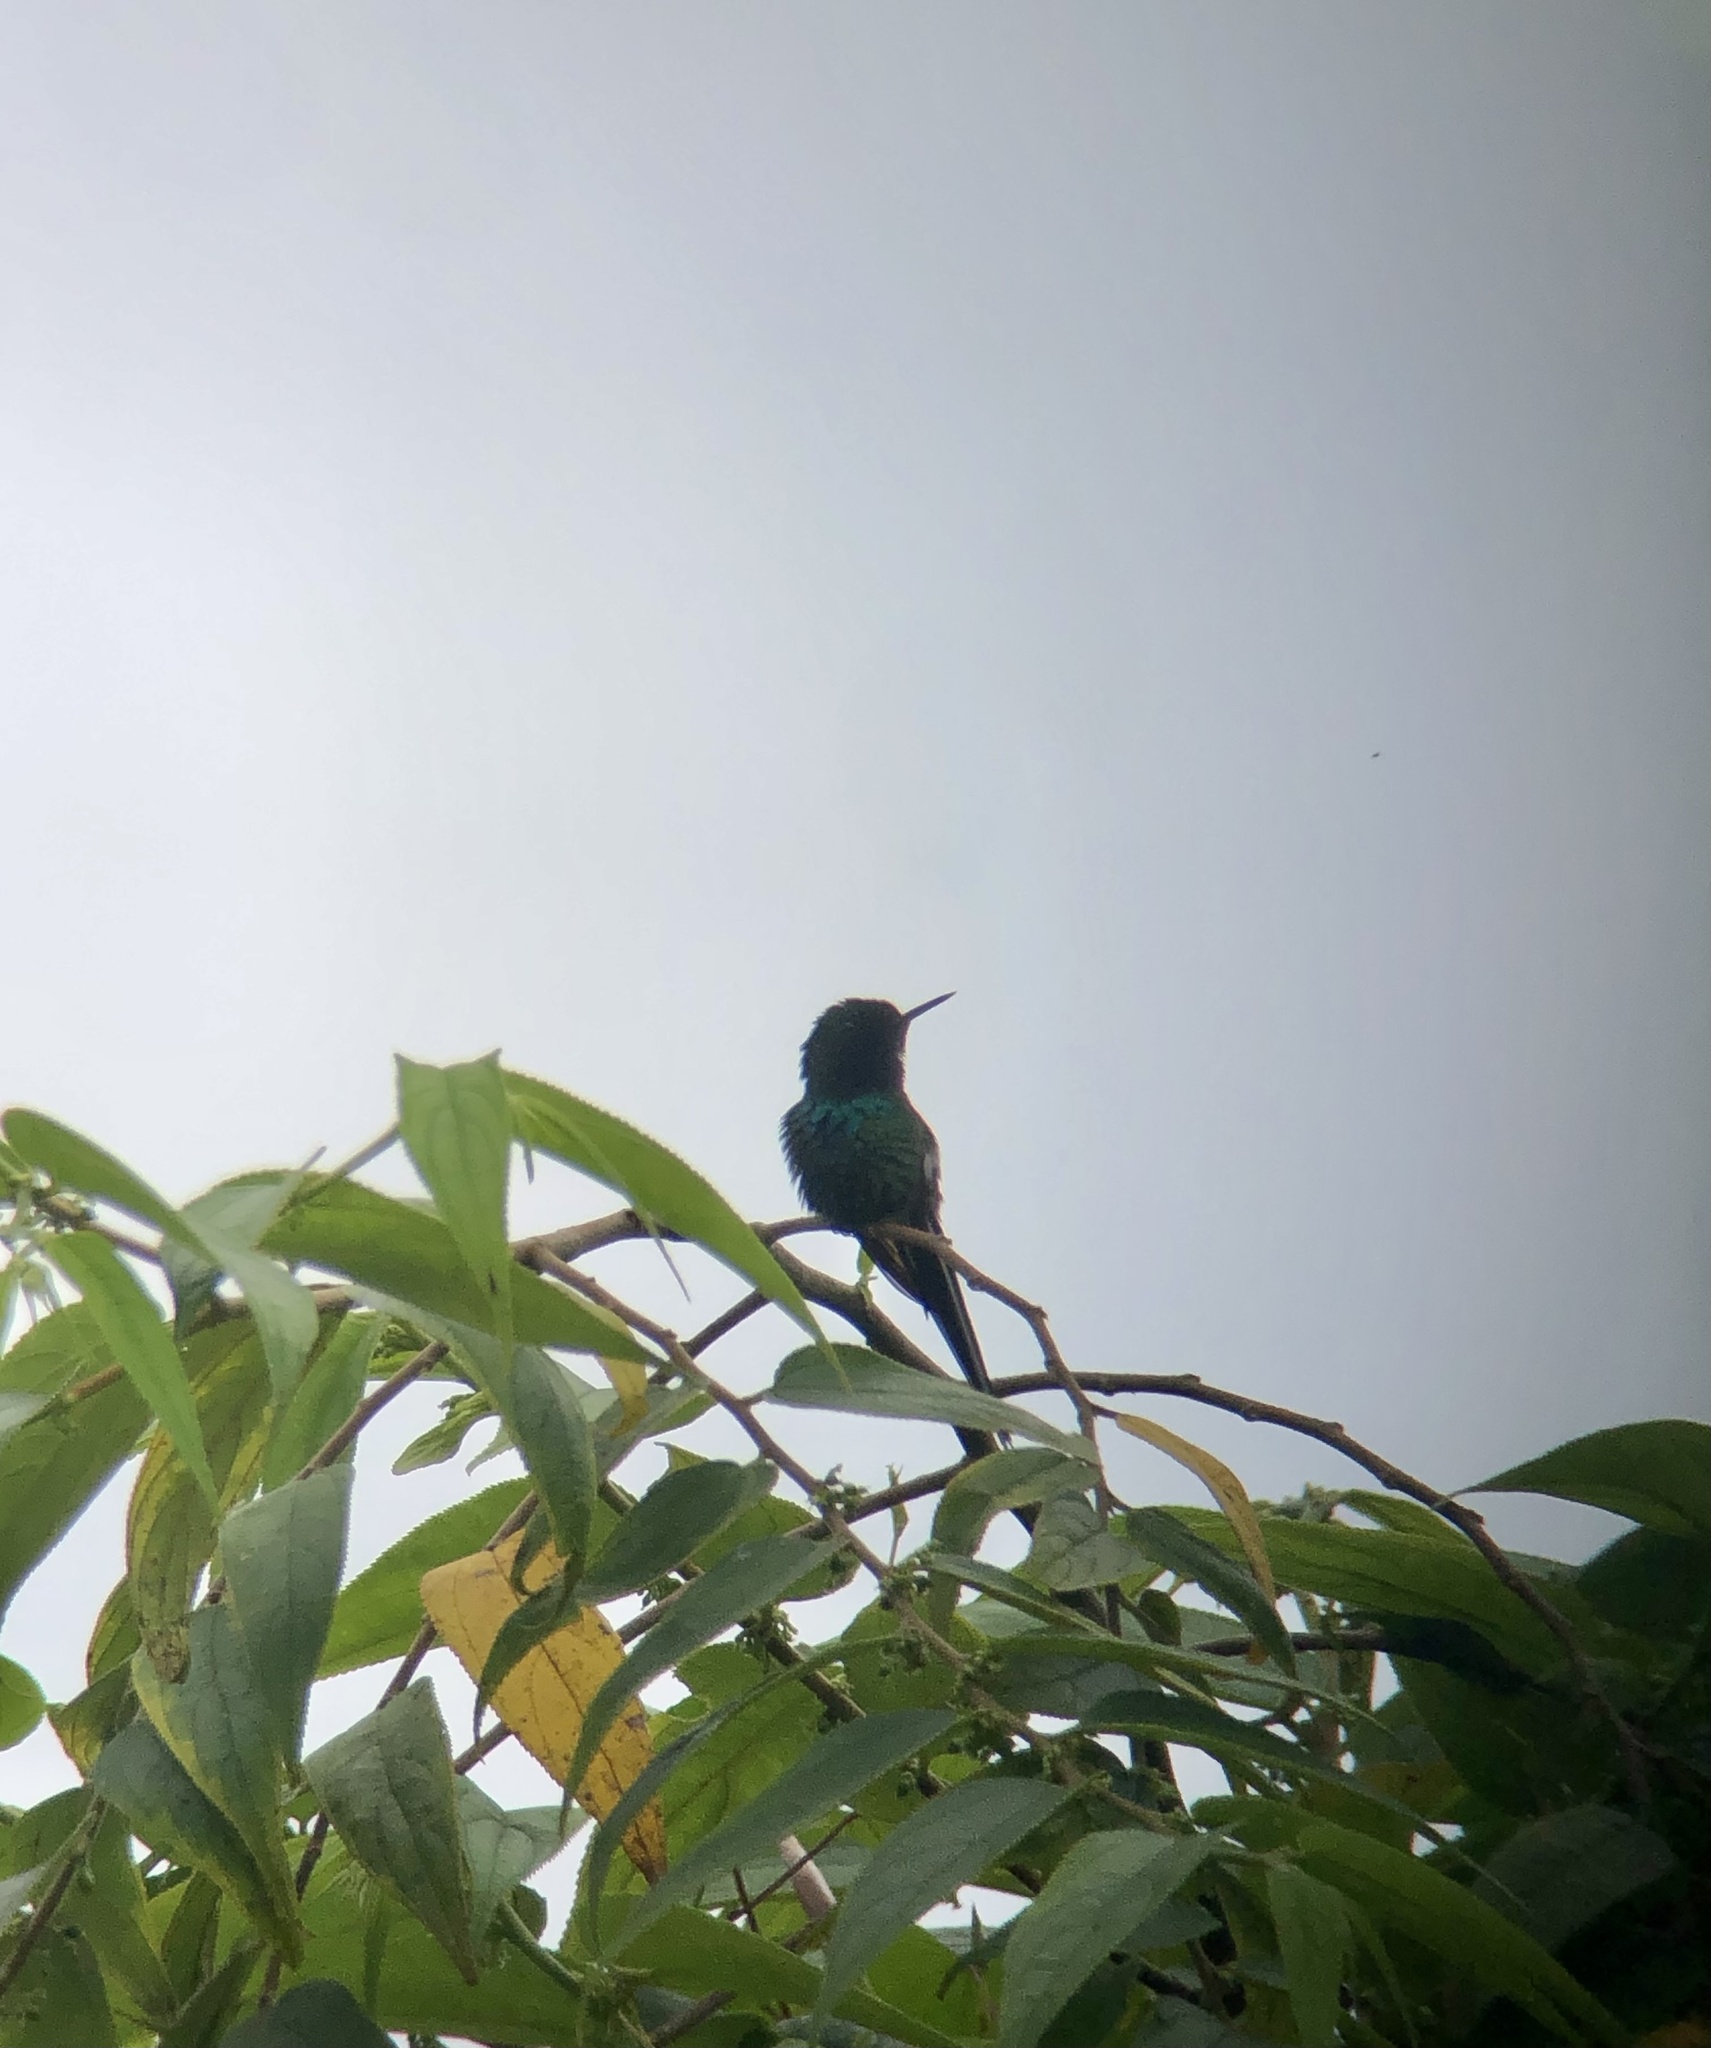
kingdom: Animalia
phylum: Chordata
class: Aves
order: Apodiformes
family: Trochilidae
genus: Discosura
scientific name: Discosura conversii
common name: Green thorntail
